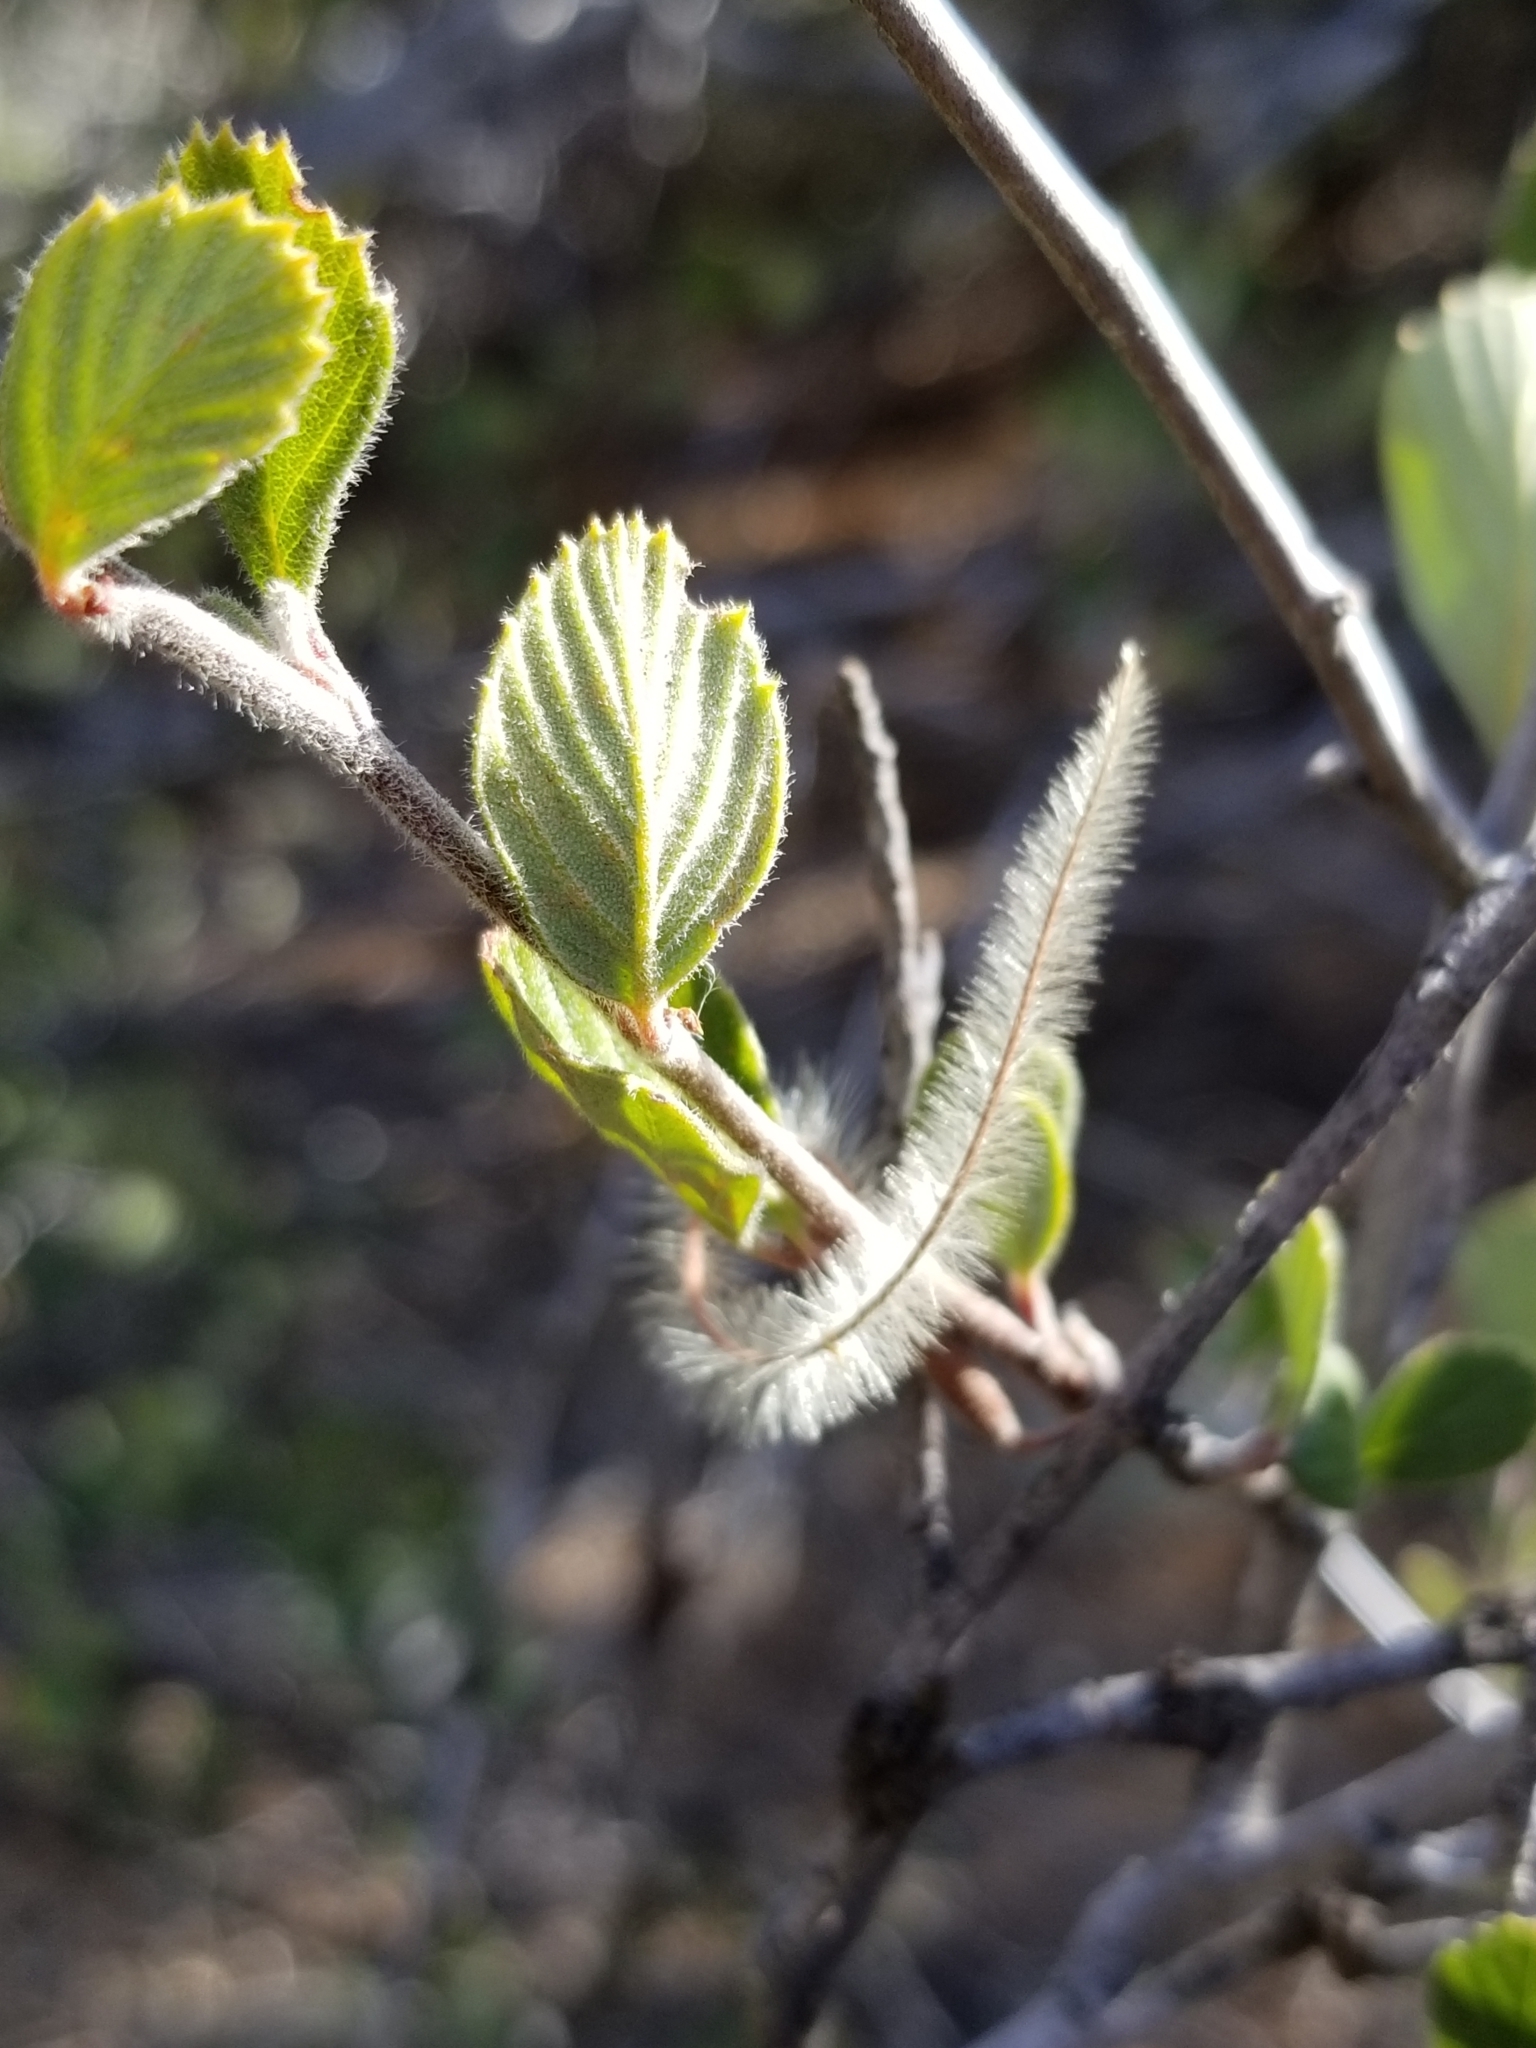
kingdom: Plantae
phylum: Tracheophyta
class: Magnoliopsida
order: Rosales
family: Rosaceae
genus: Cercocarpus
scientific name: Cercocarpus betuloides
